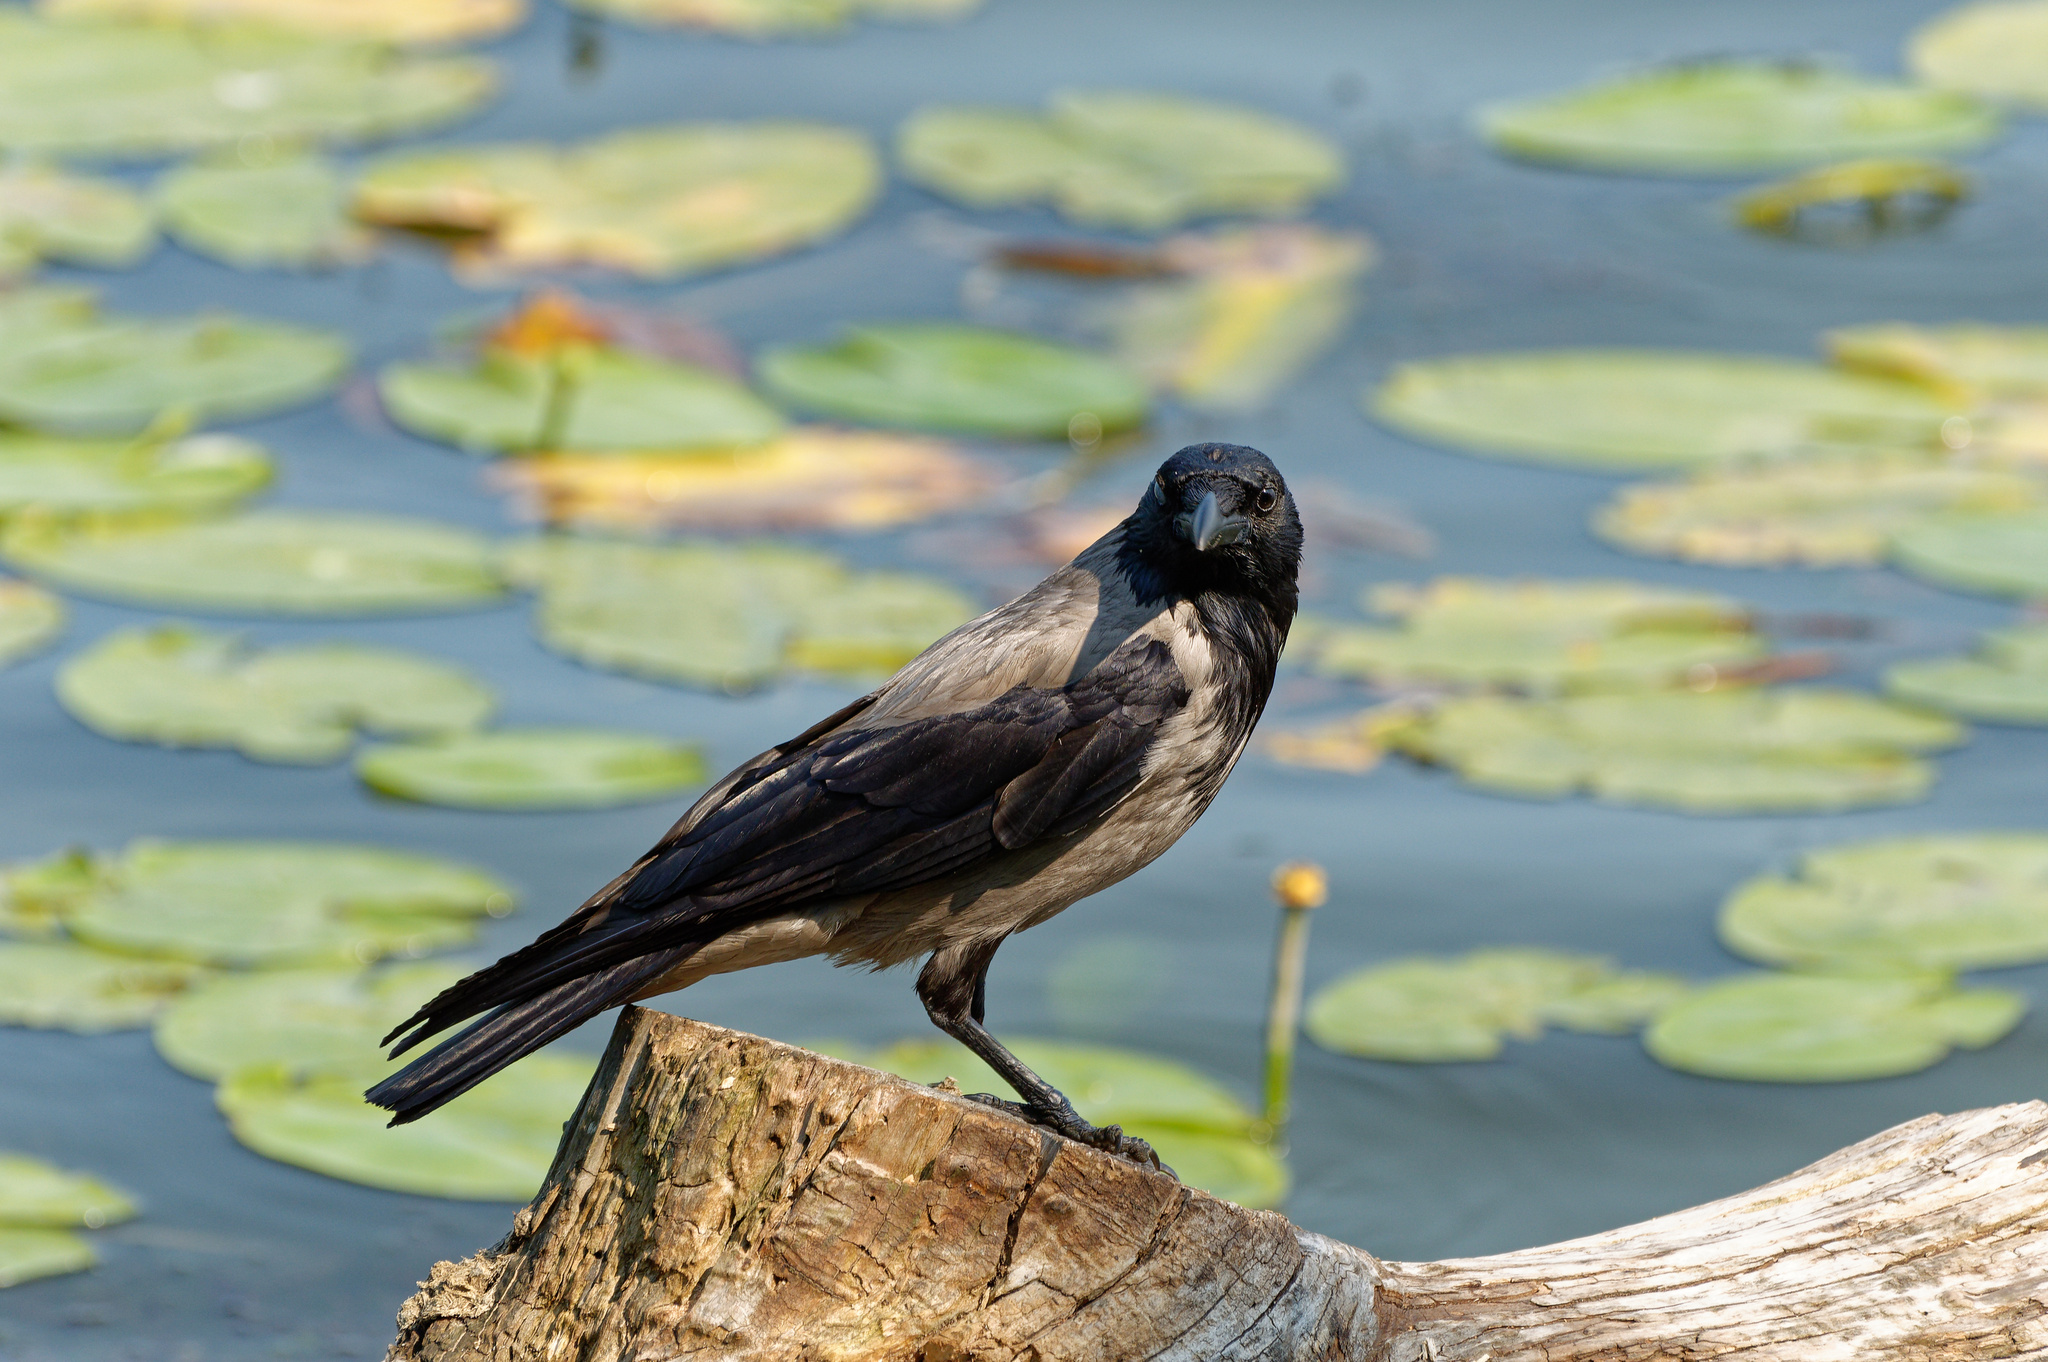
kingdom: Animalia
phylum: Chordata
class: Aves
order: Passeriformes
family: Corvidae
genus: Corvus
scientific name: Corvus cornix
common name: Hooded crow
